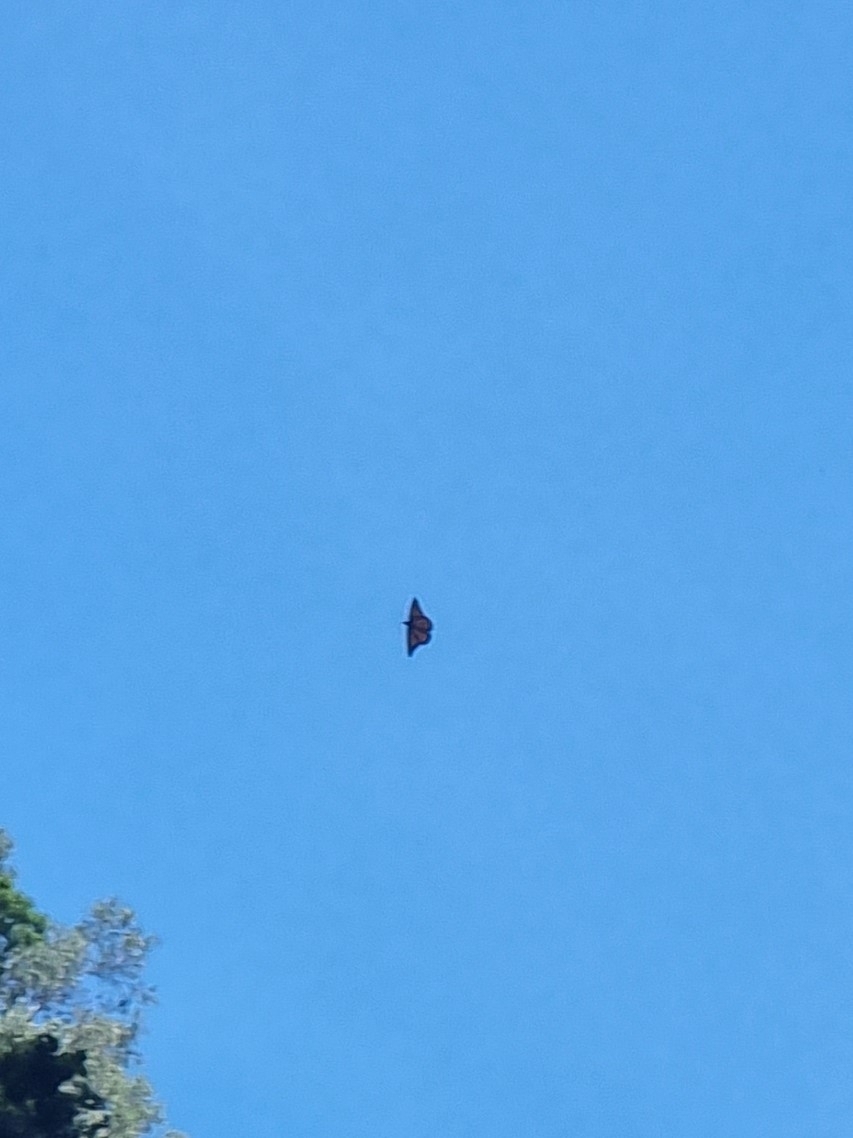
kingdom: Animalia
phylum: Arthropoda
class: Insecta
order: Lepidoptera
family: Nymphalidae
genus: Danaus
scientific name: Danaus plexippus
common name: Monarch
